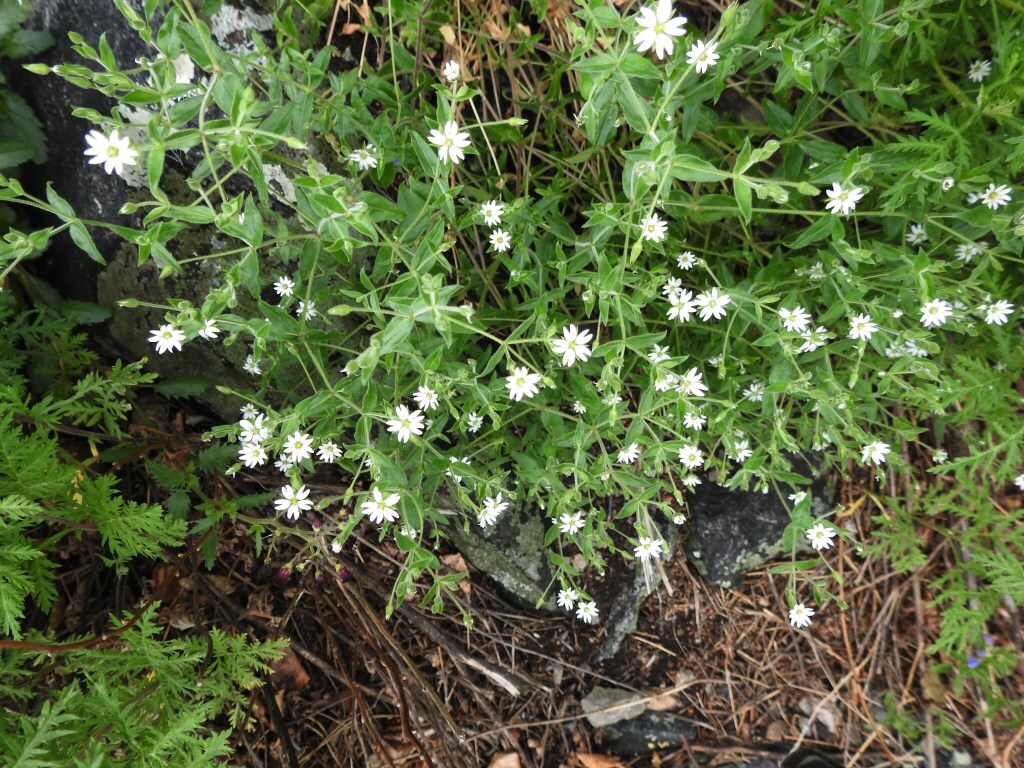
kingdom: Plantae
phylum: Tracheophyta
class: Magnoliopsida
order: Caryophyllales
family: Caryophyllaceae
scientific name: Caryophyllaceae
